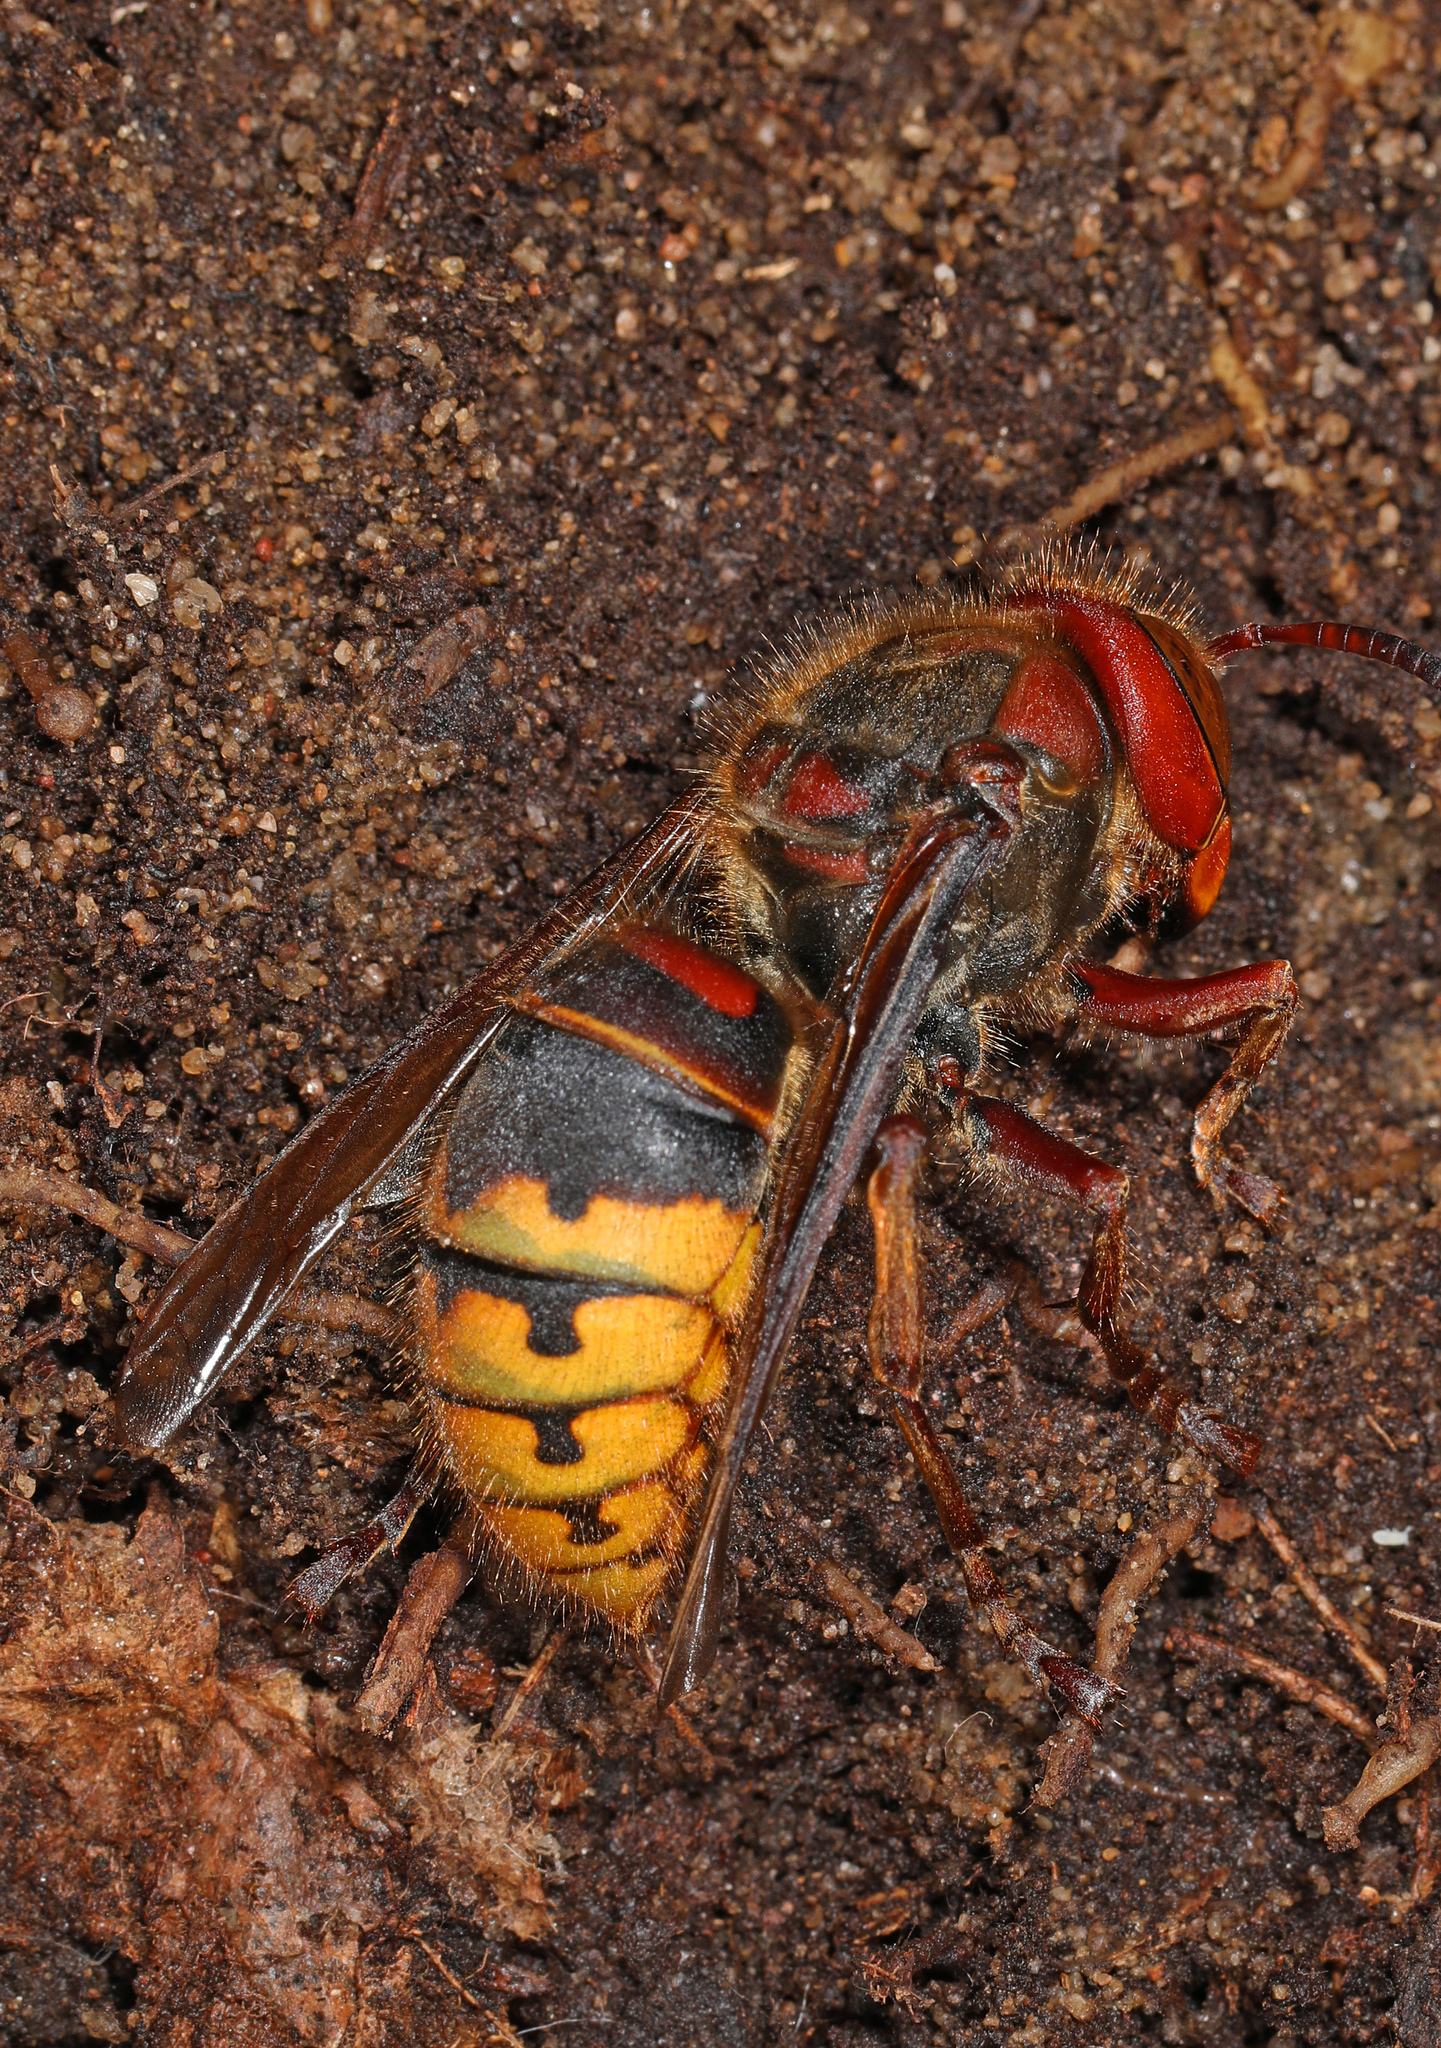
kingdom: Animalia
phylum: Arthropoda
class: Insecta
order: Hymenoptera
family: Vespidae
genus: Vespa
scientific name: Vespa crabro
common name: Hornet
